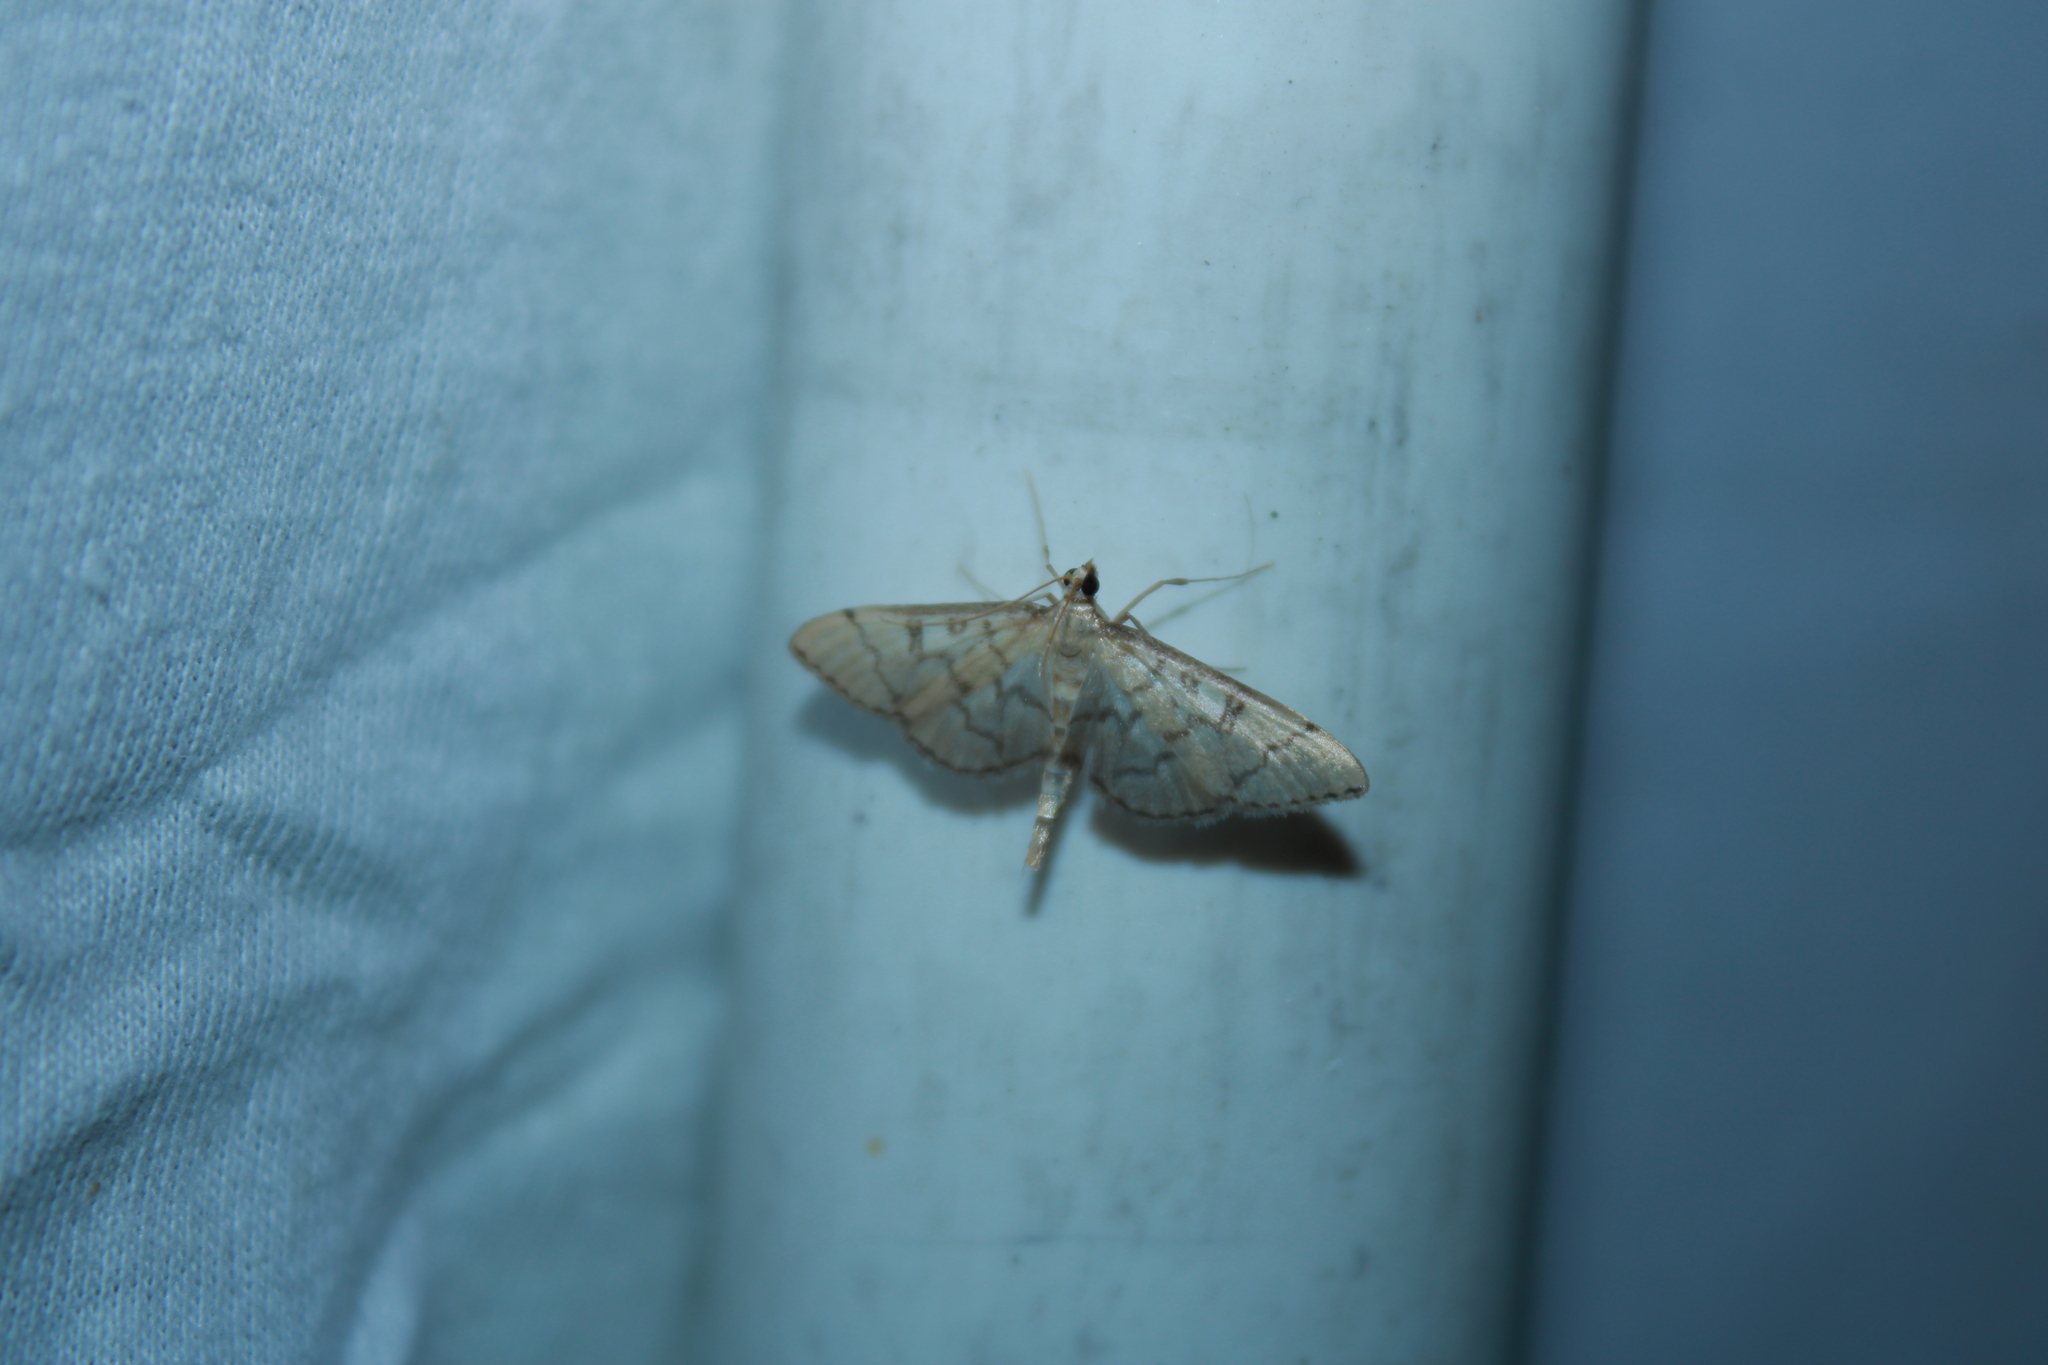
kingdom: Animalia
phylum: Arthropoda
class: Insecta
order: Lepidoptera
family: Crambidae
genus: Lamprosema
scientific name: Lamprosema Blepharomastix ranalis
